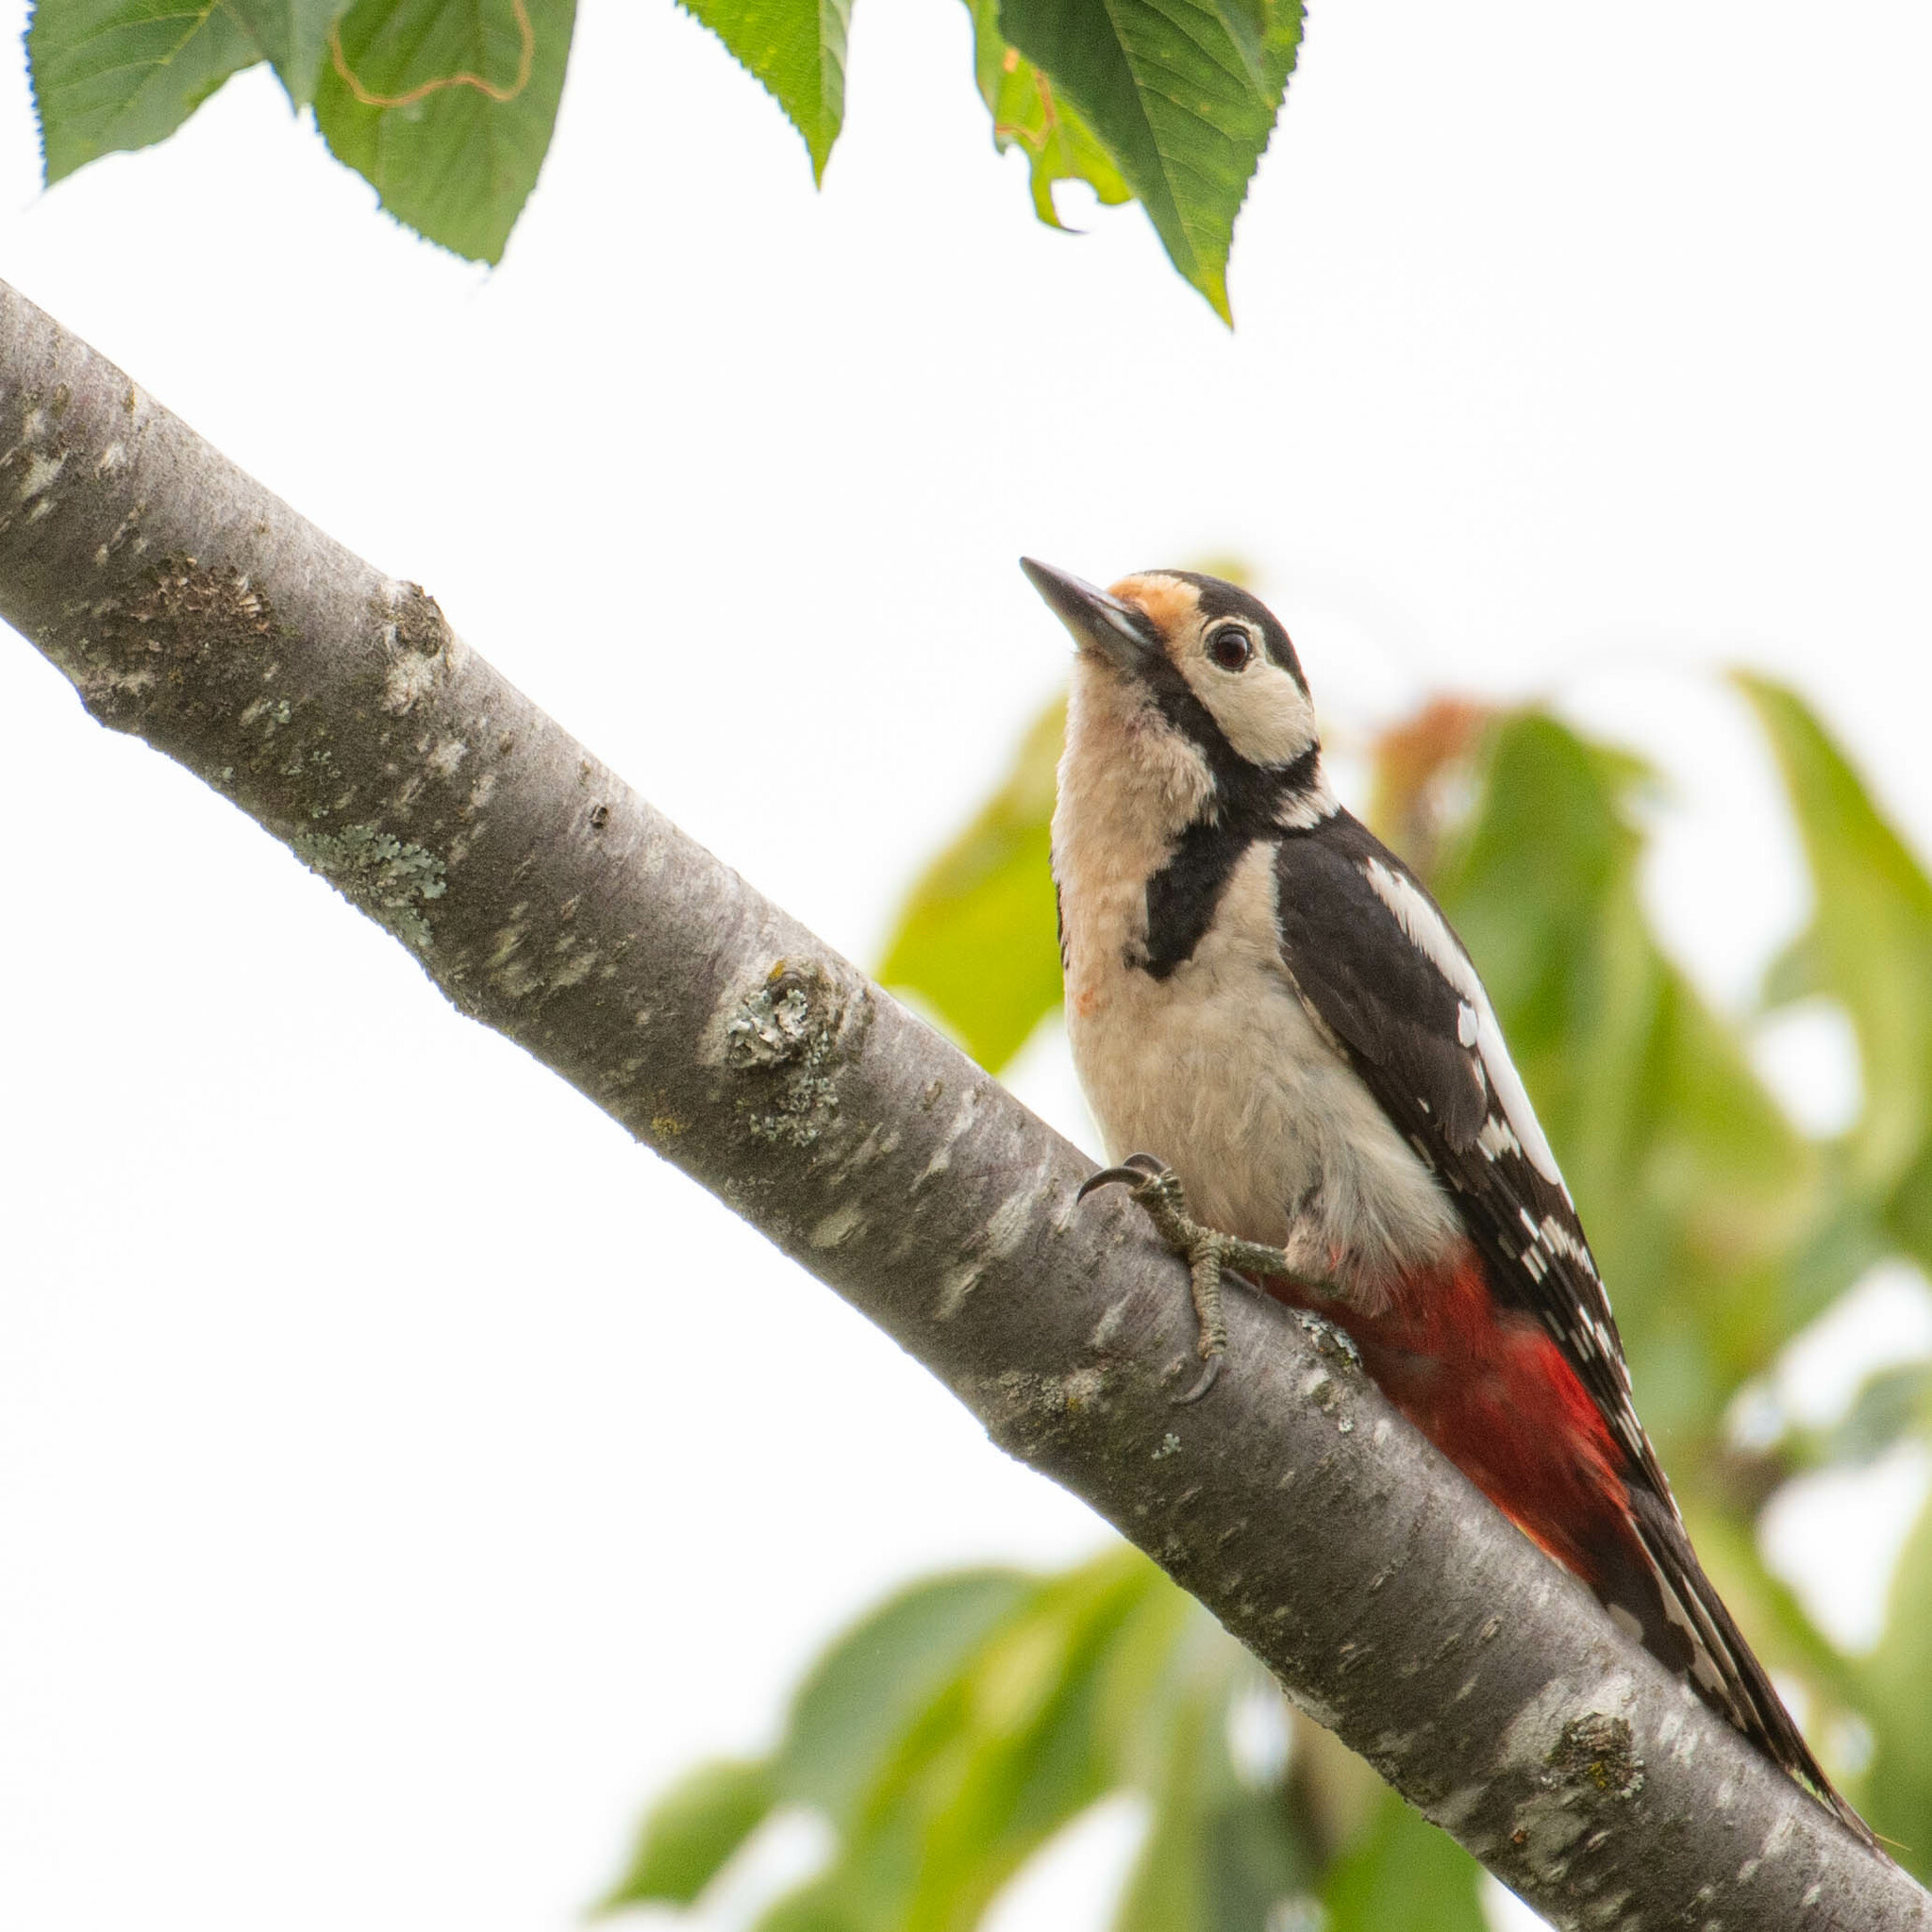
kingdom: Animalia
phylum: Chordata
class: Aves
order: Piciformes
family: Picidae
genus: Dendrocopos
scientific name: Dendrocopos major
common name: Great spotted woodpecker
